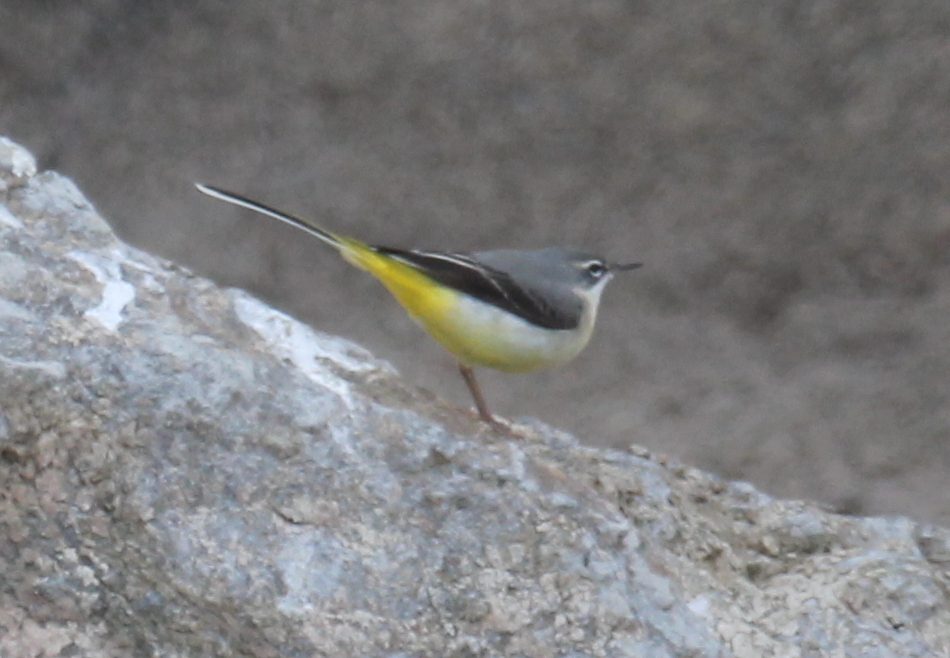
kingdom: Animalia
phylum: Chordata
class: Aves
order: Passeriformes
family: Motacillidae
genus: Motacilla
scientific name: Motacilla cinerea
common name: Grey wagtail
